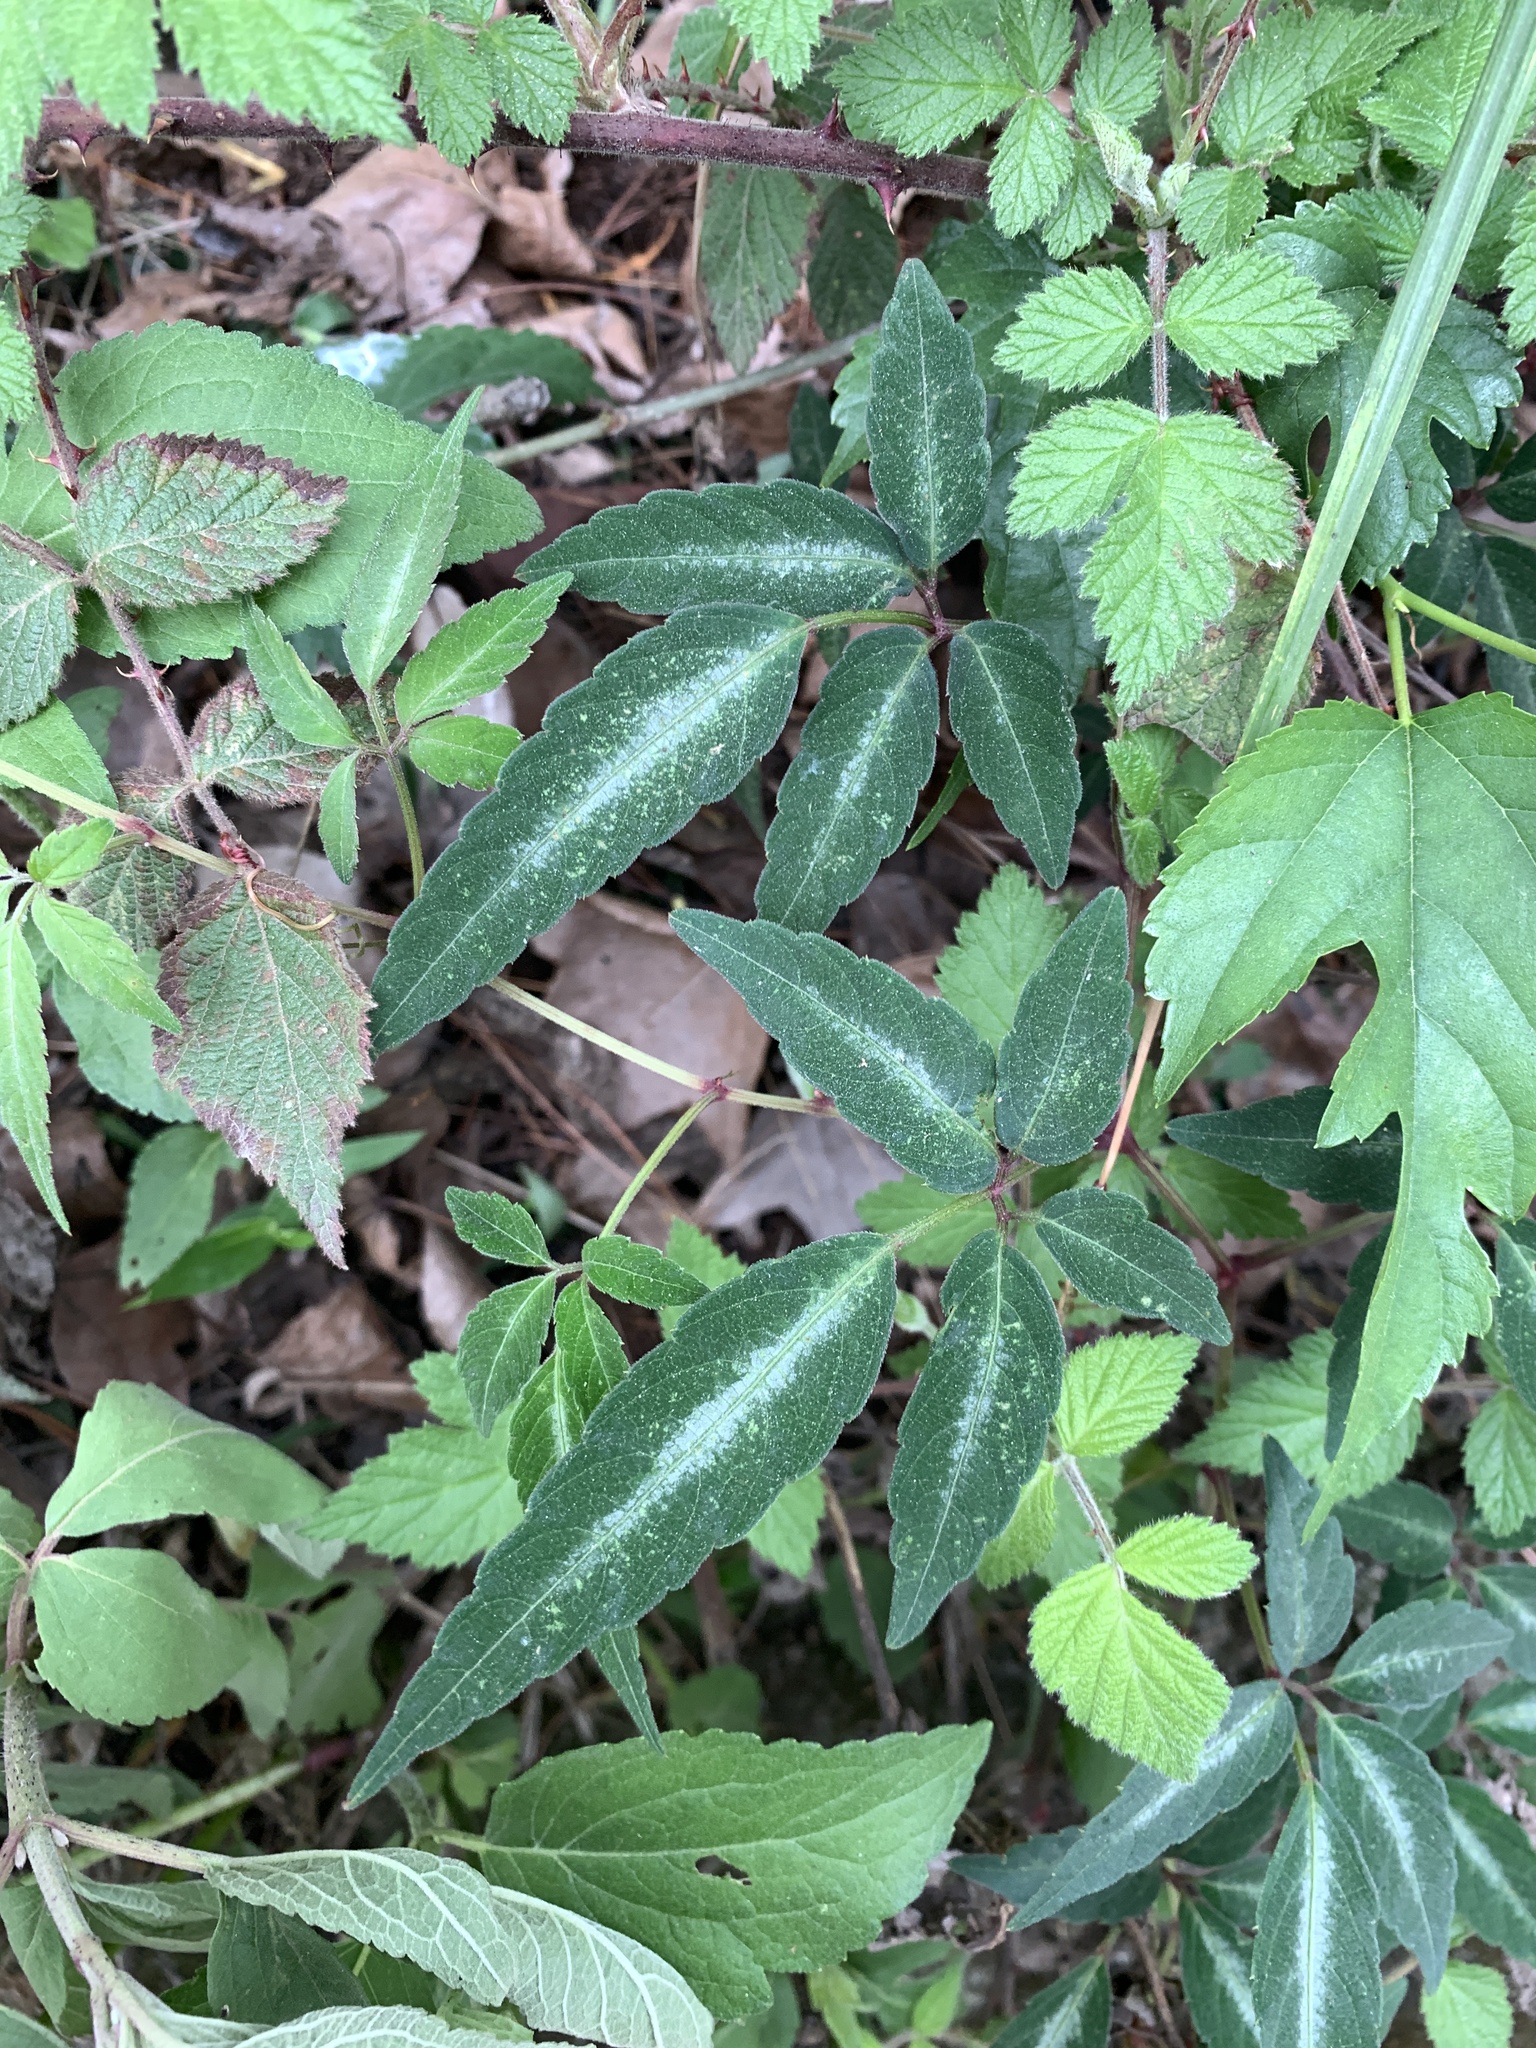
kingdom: Plantae
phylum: Tracheophyta
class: Magnoliopsida
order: Vitales
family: Vitaceae
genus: Pseudocayratia
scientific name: Pseudocayratia pengiana
